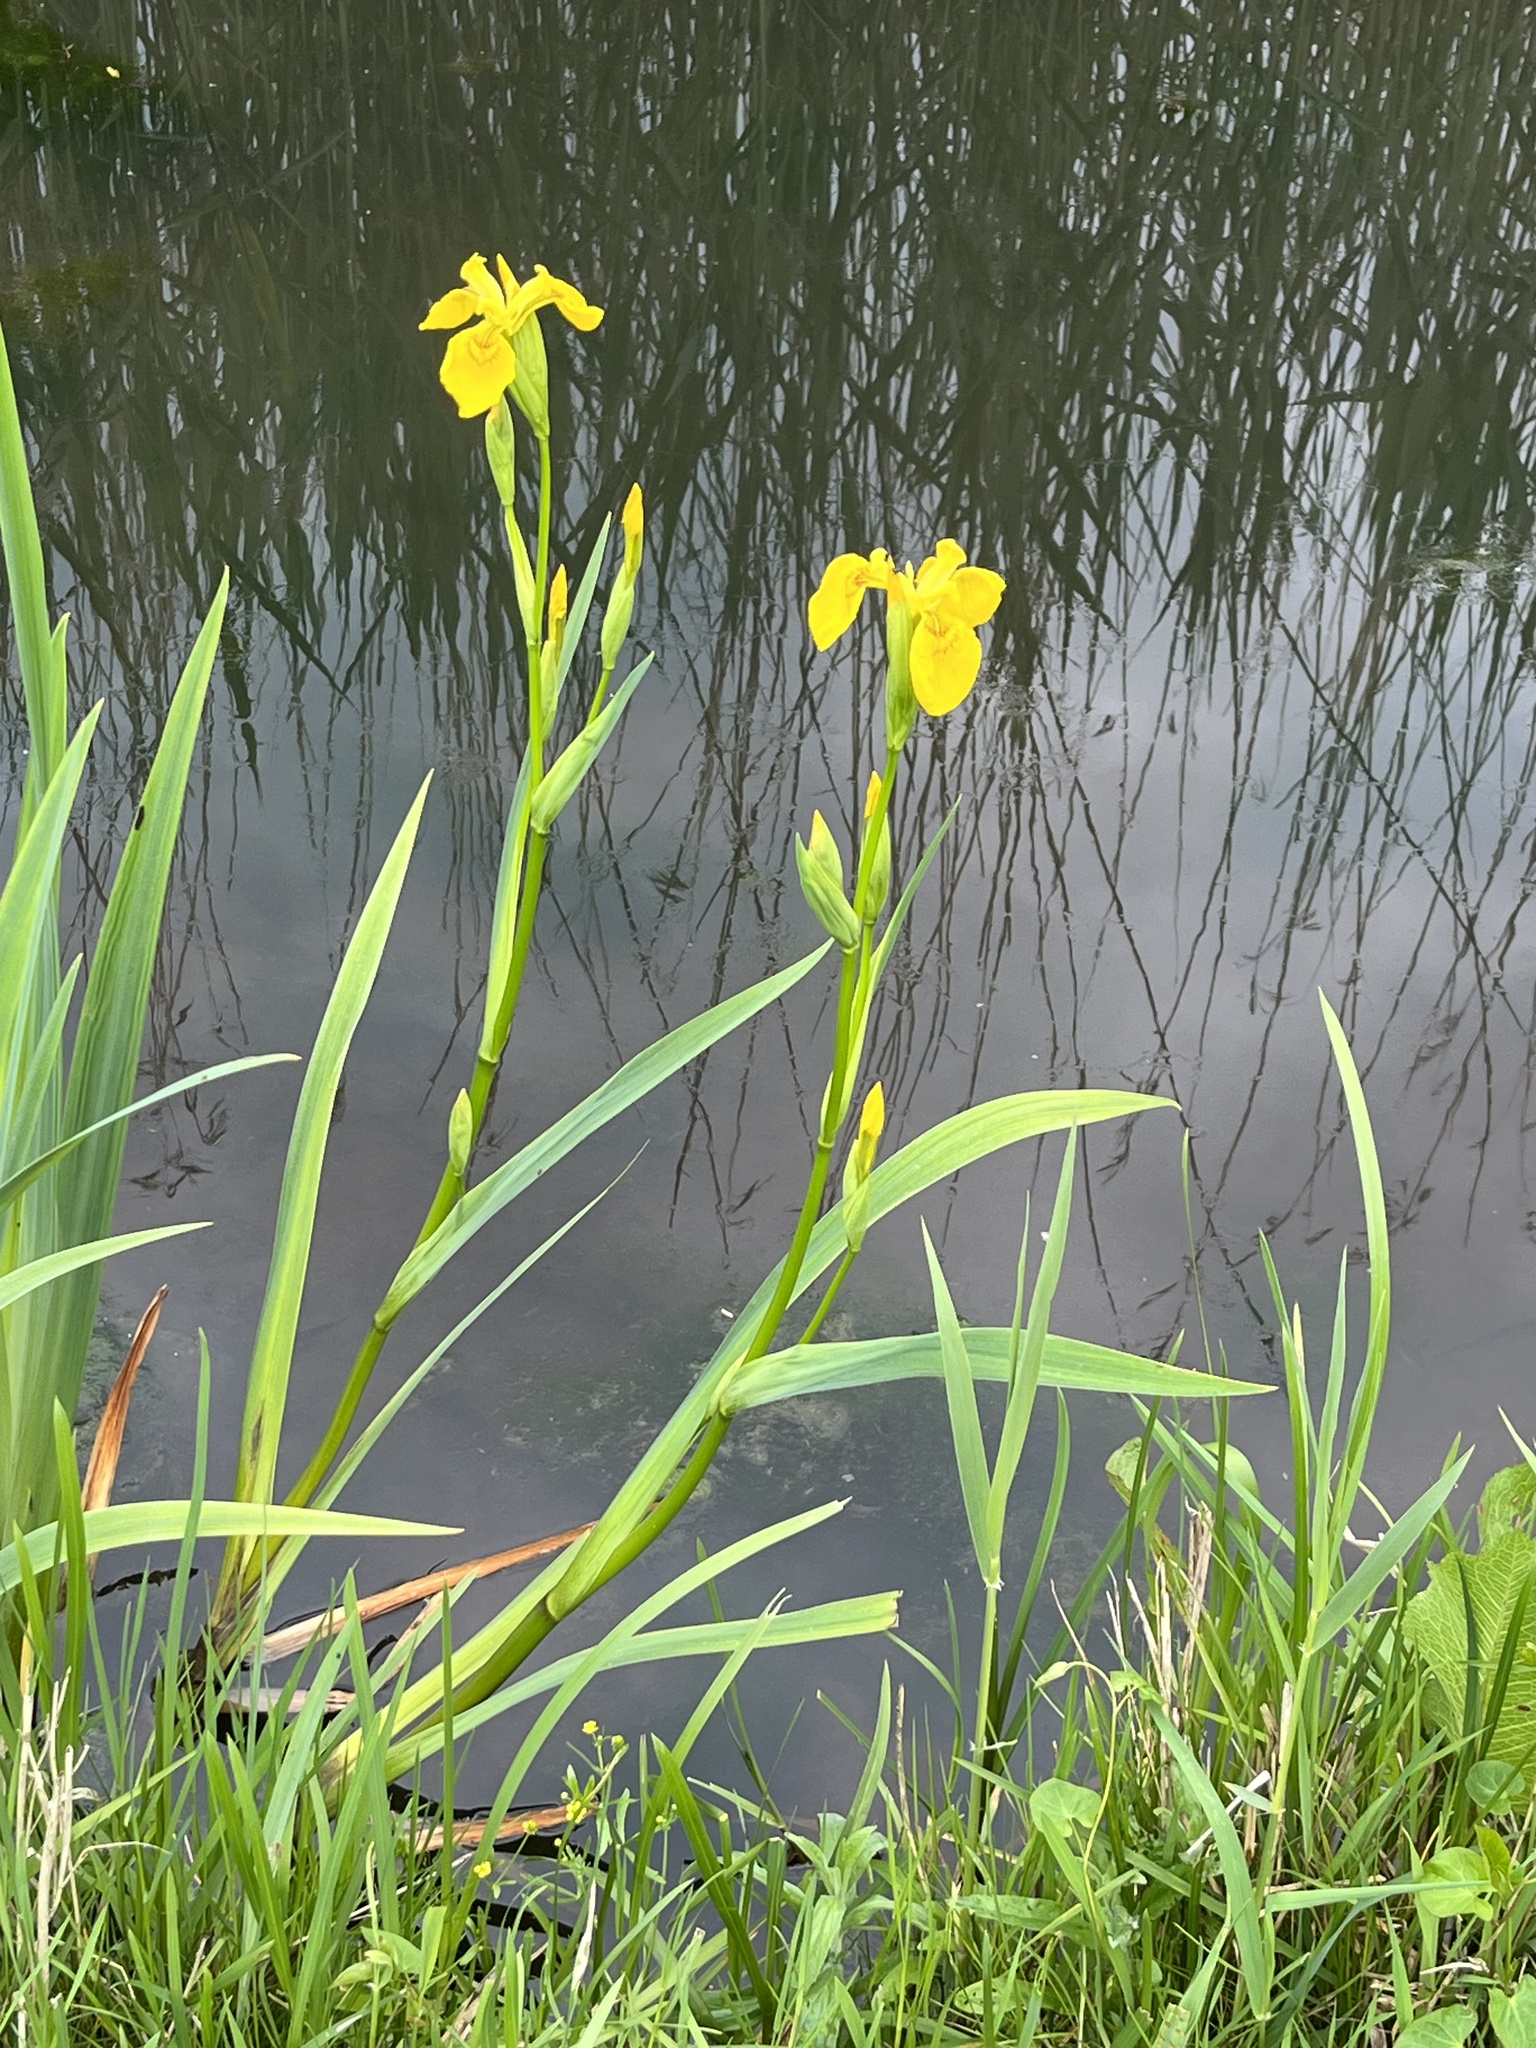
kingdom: Plantae
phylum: Tracheophyta
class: Liliopsida
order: Asparagales
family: Iridaceae
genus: Iris
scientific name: Iris pseudacorus
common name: Yellow flag
